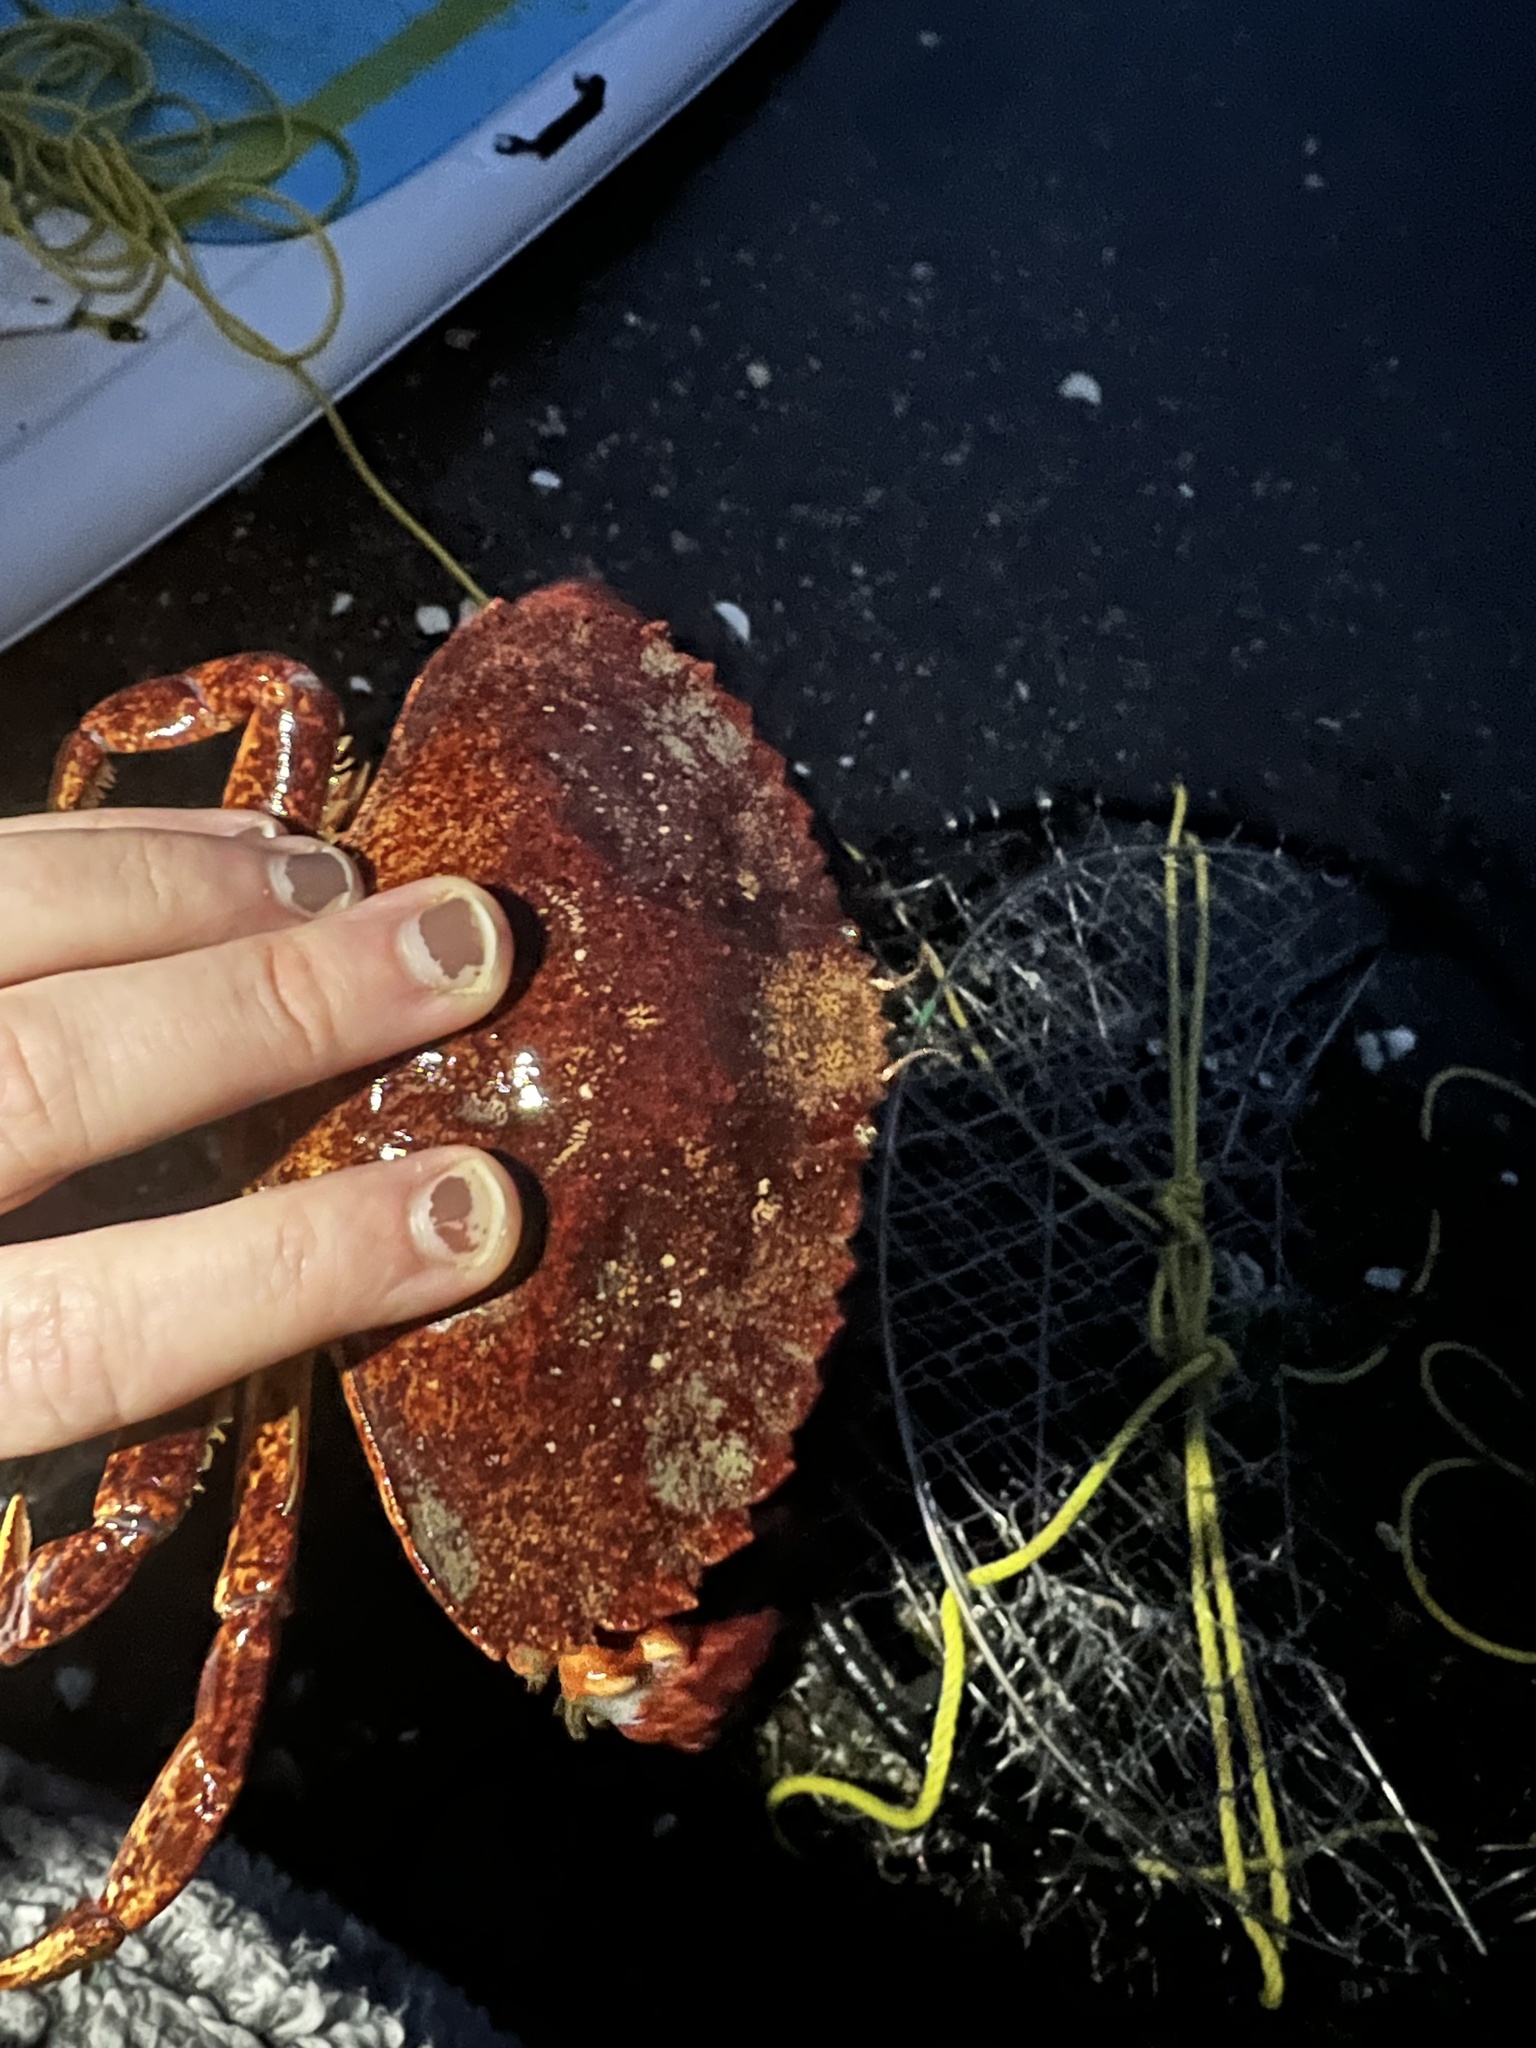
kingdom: Animalia
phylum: Arthropoda
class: Malacostraca
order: Decapoda
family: Cancridae
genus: Cancer
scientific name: Cancer productus
